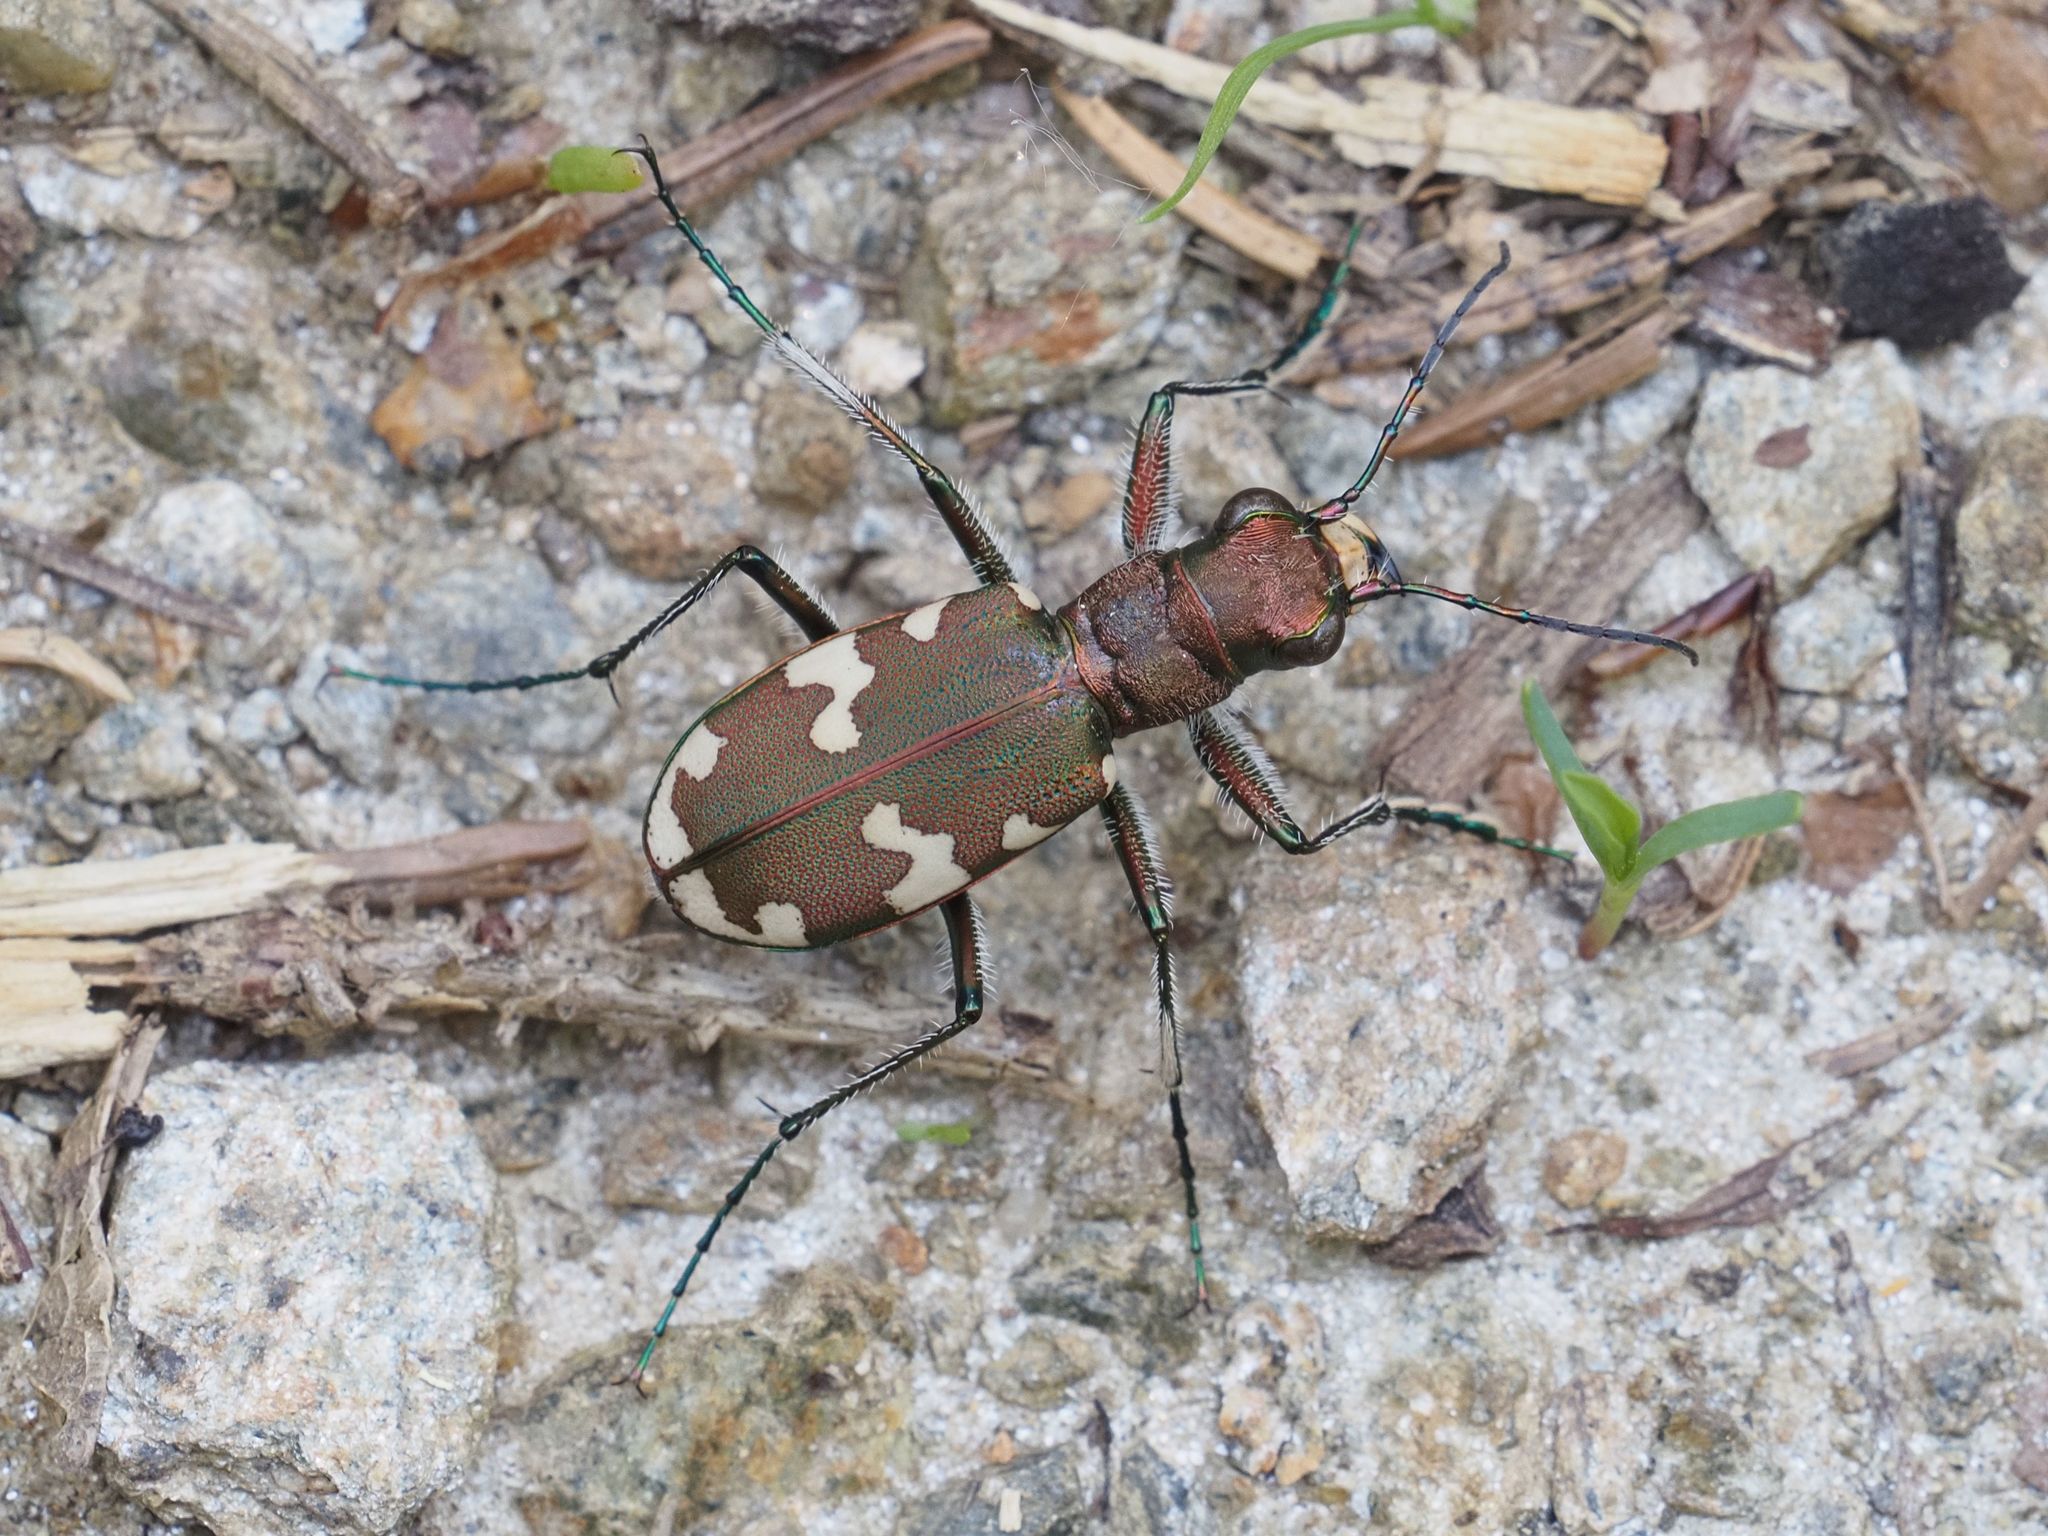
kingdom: Animalia
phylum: Arthropoda
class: Insecta
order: Coleoptera
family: Carabidae
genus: Cicindela
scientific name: Cicindela sylvicola
